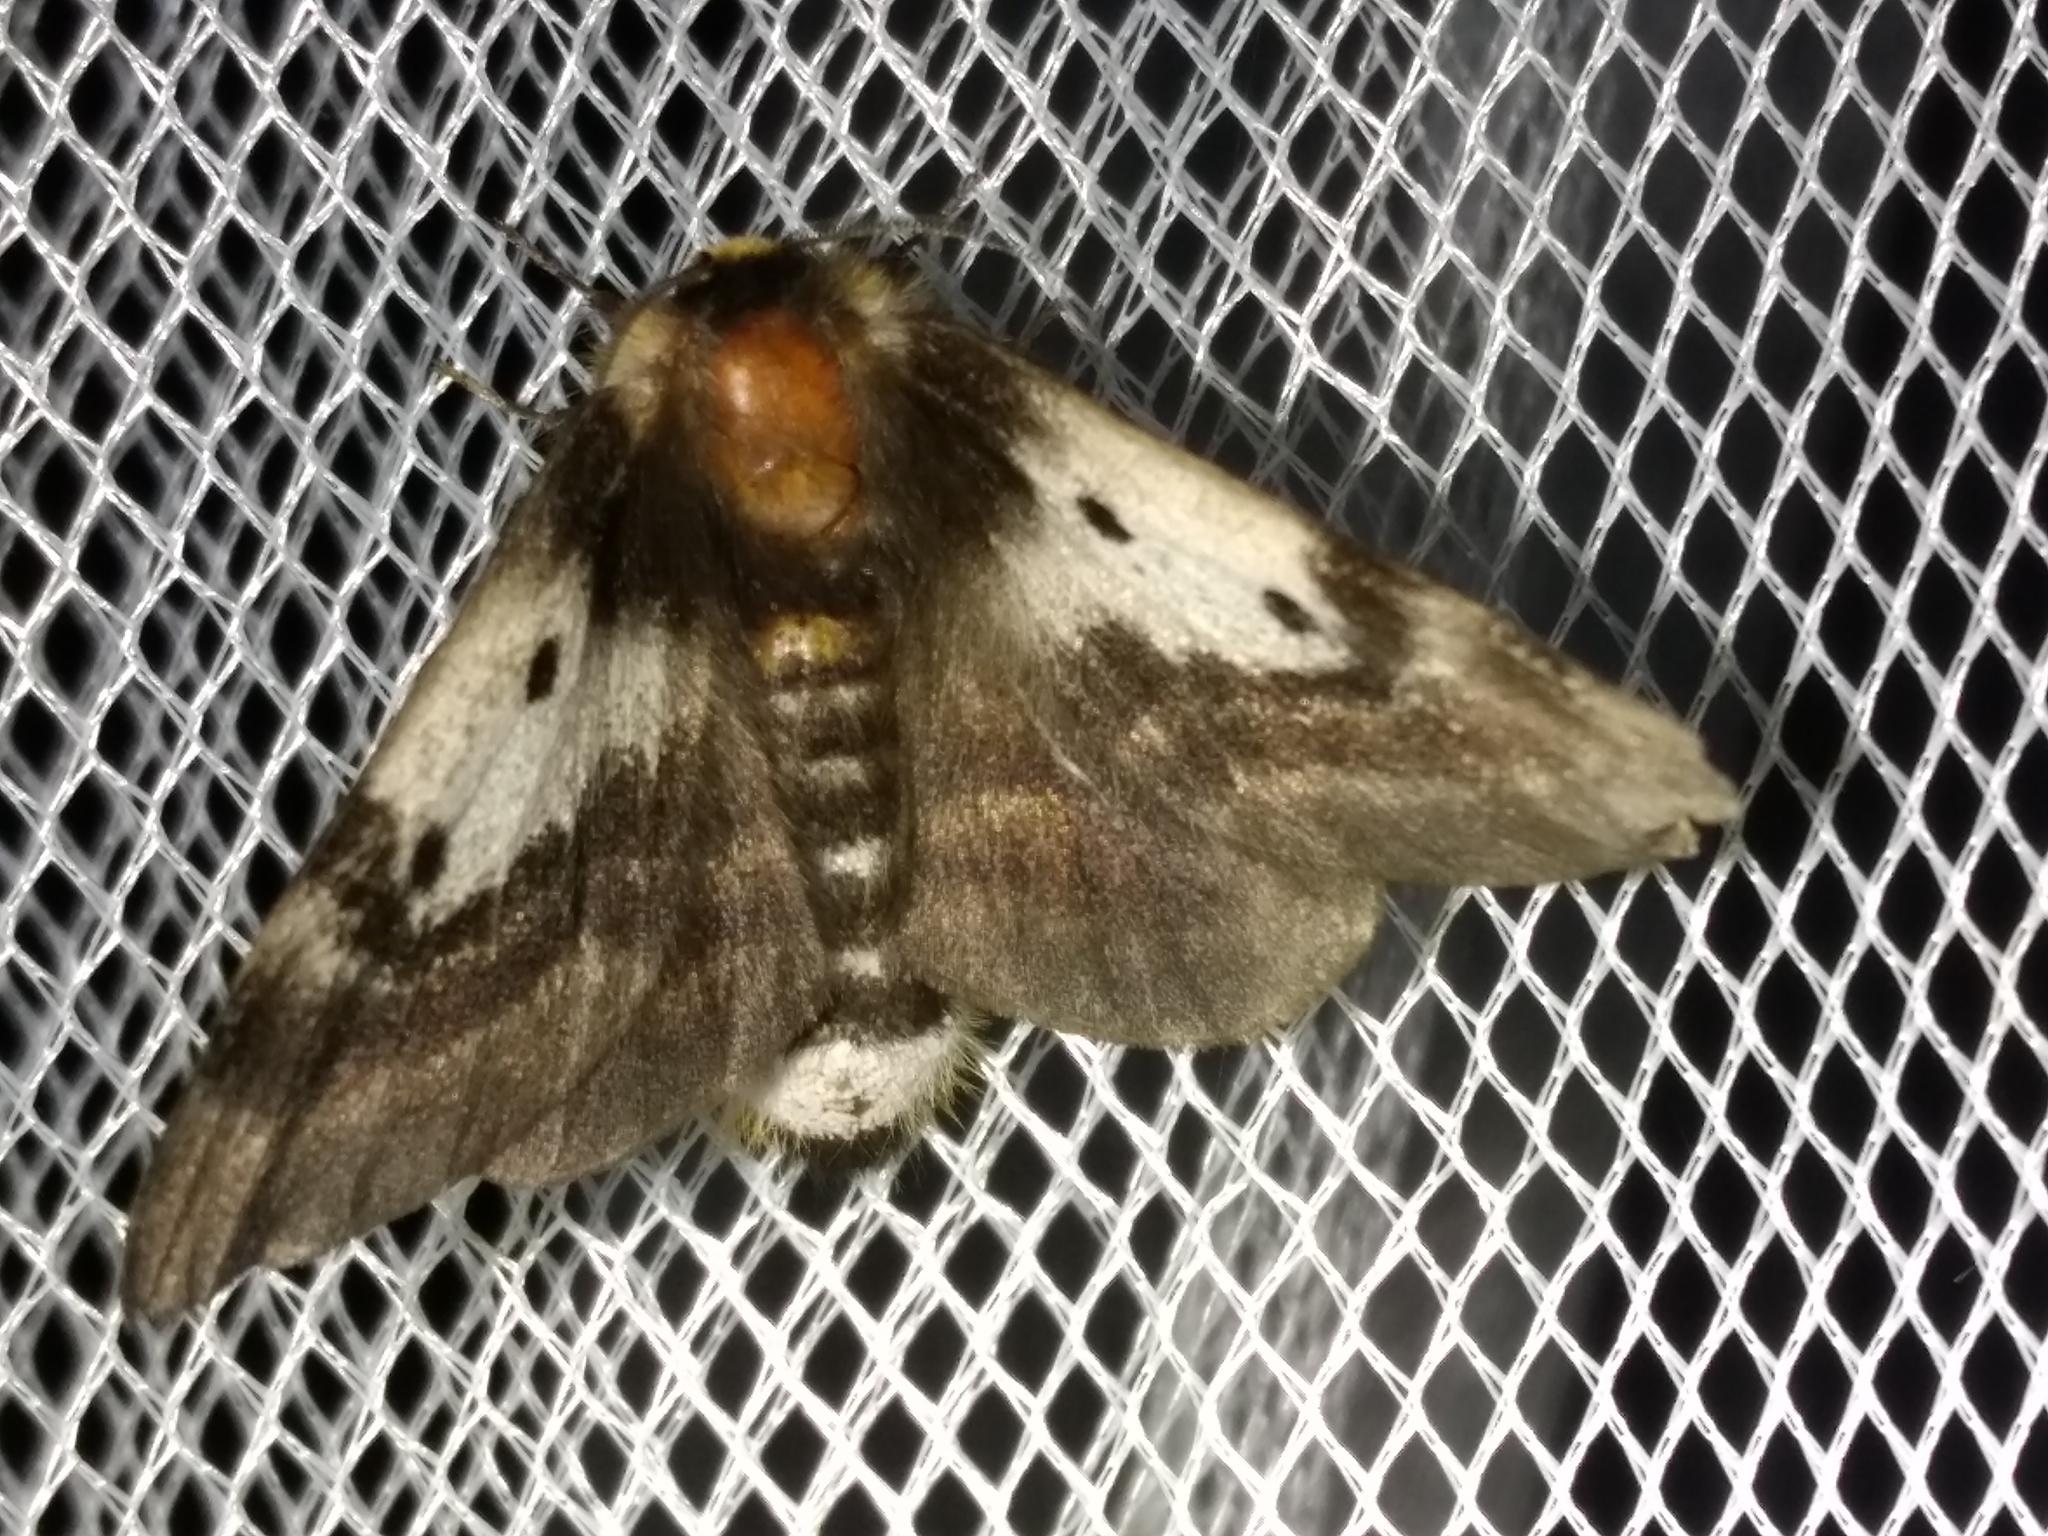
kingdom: Animalia
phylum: Arthropoda
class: Insecta
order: Lepidoptera
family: Anthelidae
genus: Nataxa
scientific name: Nataxa flavescens
